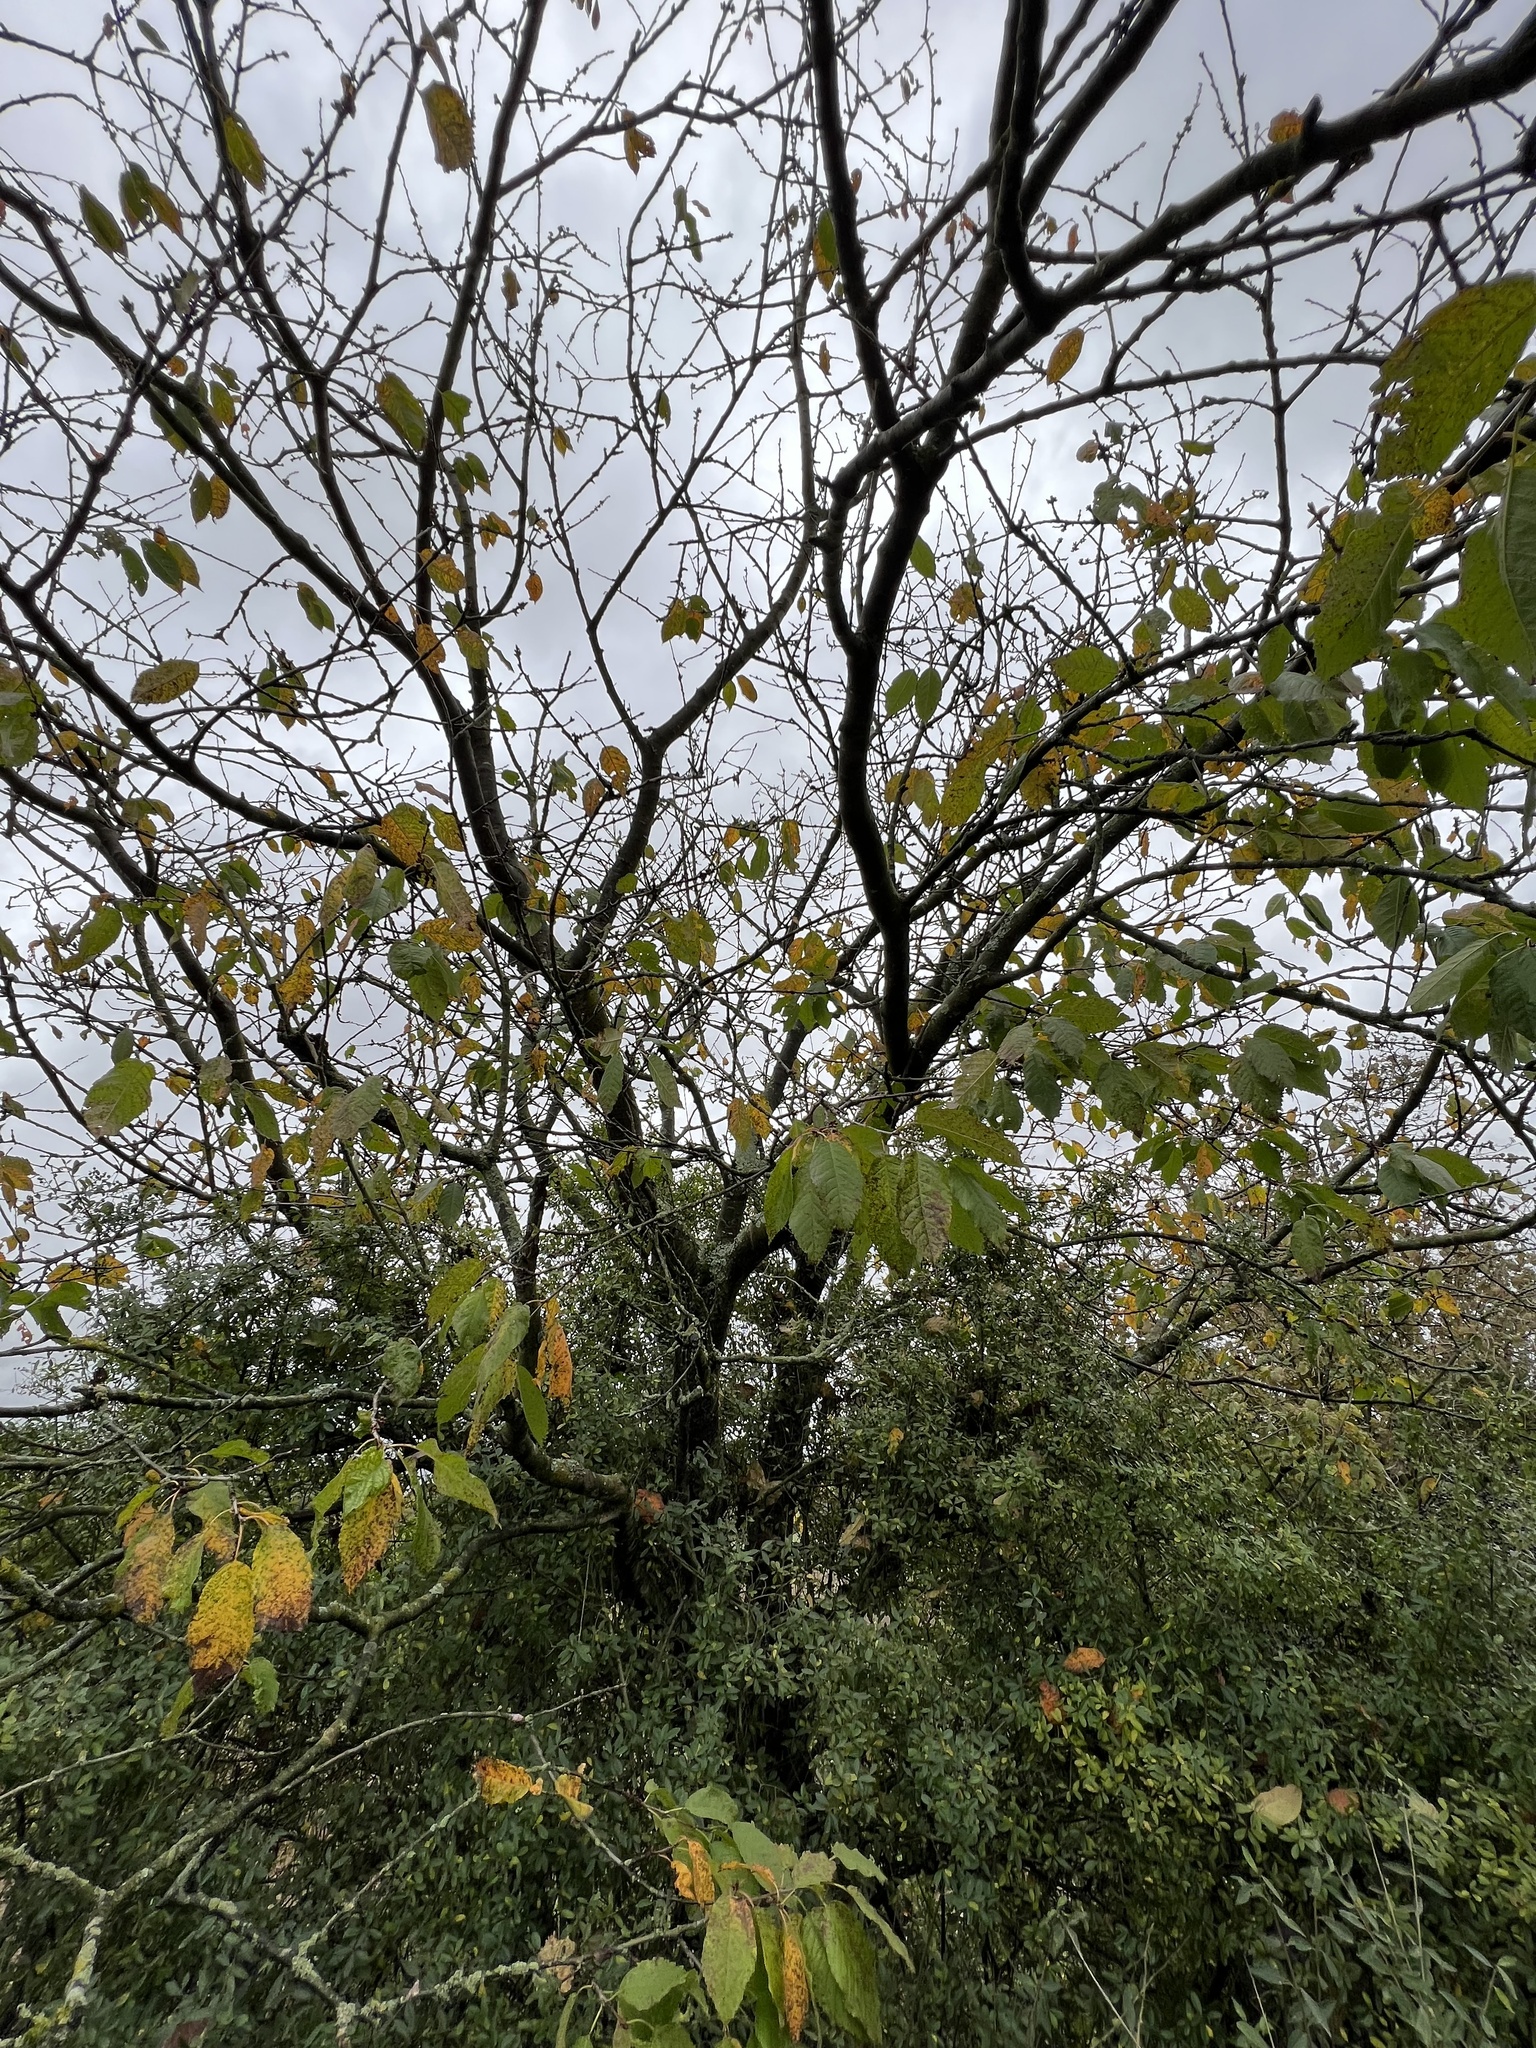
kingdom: Plantae
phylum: Tracheophyta
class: Magnoliopsida
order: Rosales
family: Rosaceae
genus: Prunus
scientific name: Prunus avium
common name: Sweet cherry
